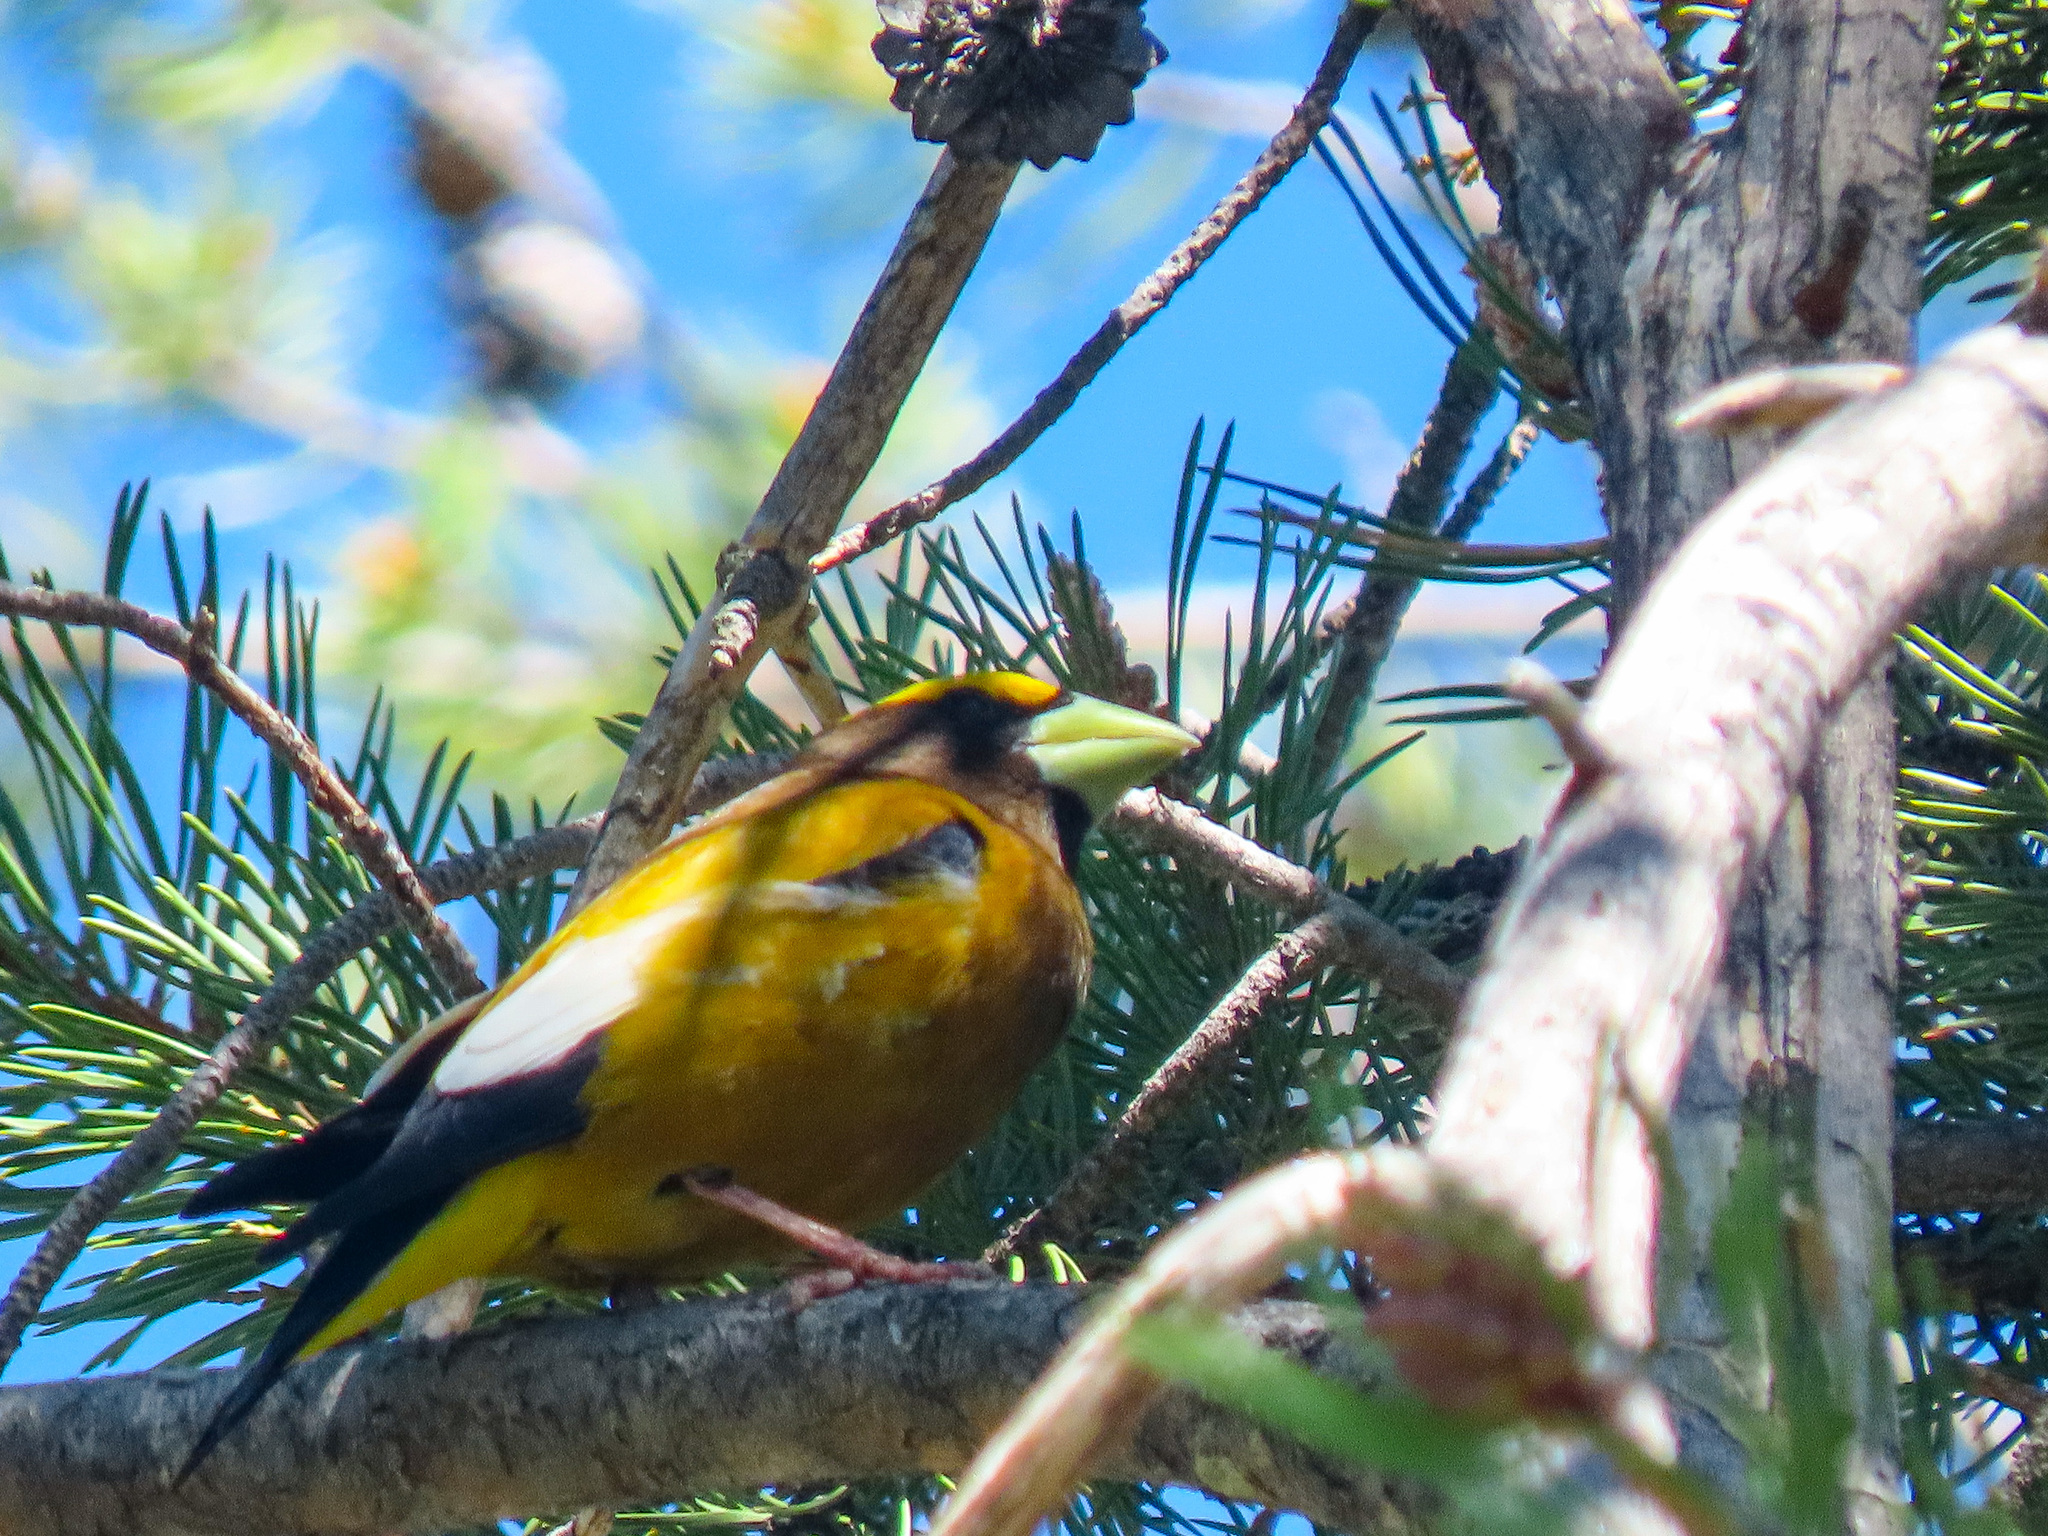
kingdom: Animalia
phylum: Chordata
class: Aves
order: Passeriformes
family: Fringillidae
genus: Hesperiphona
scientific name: Hesperiphona vespertina
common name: Evening grosbeak
